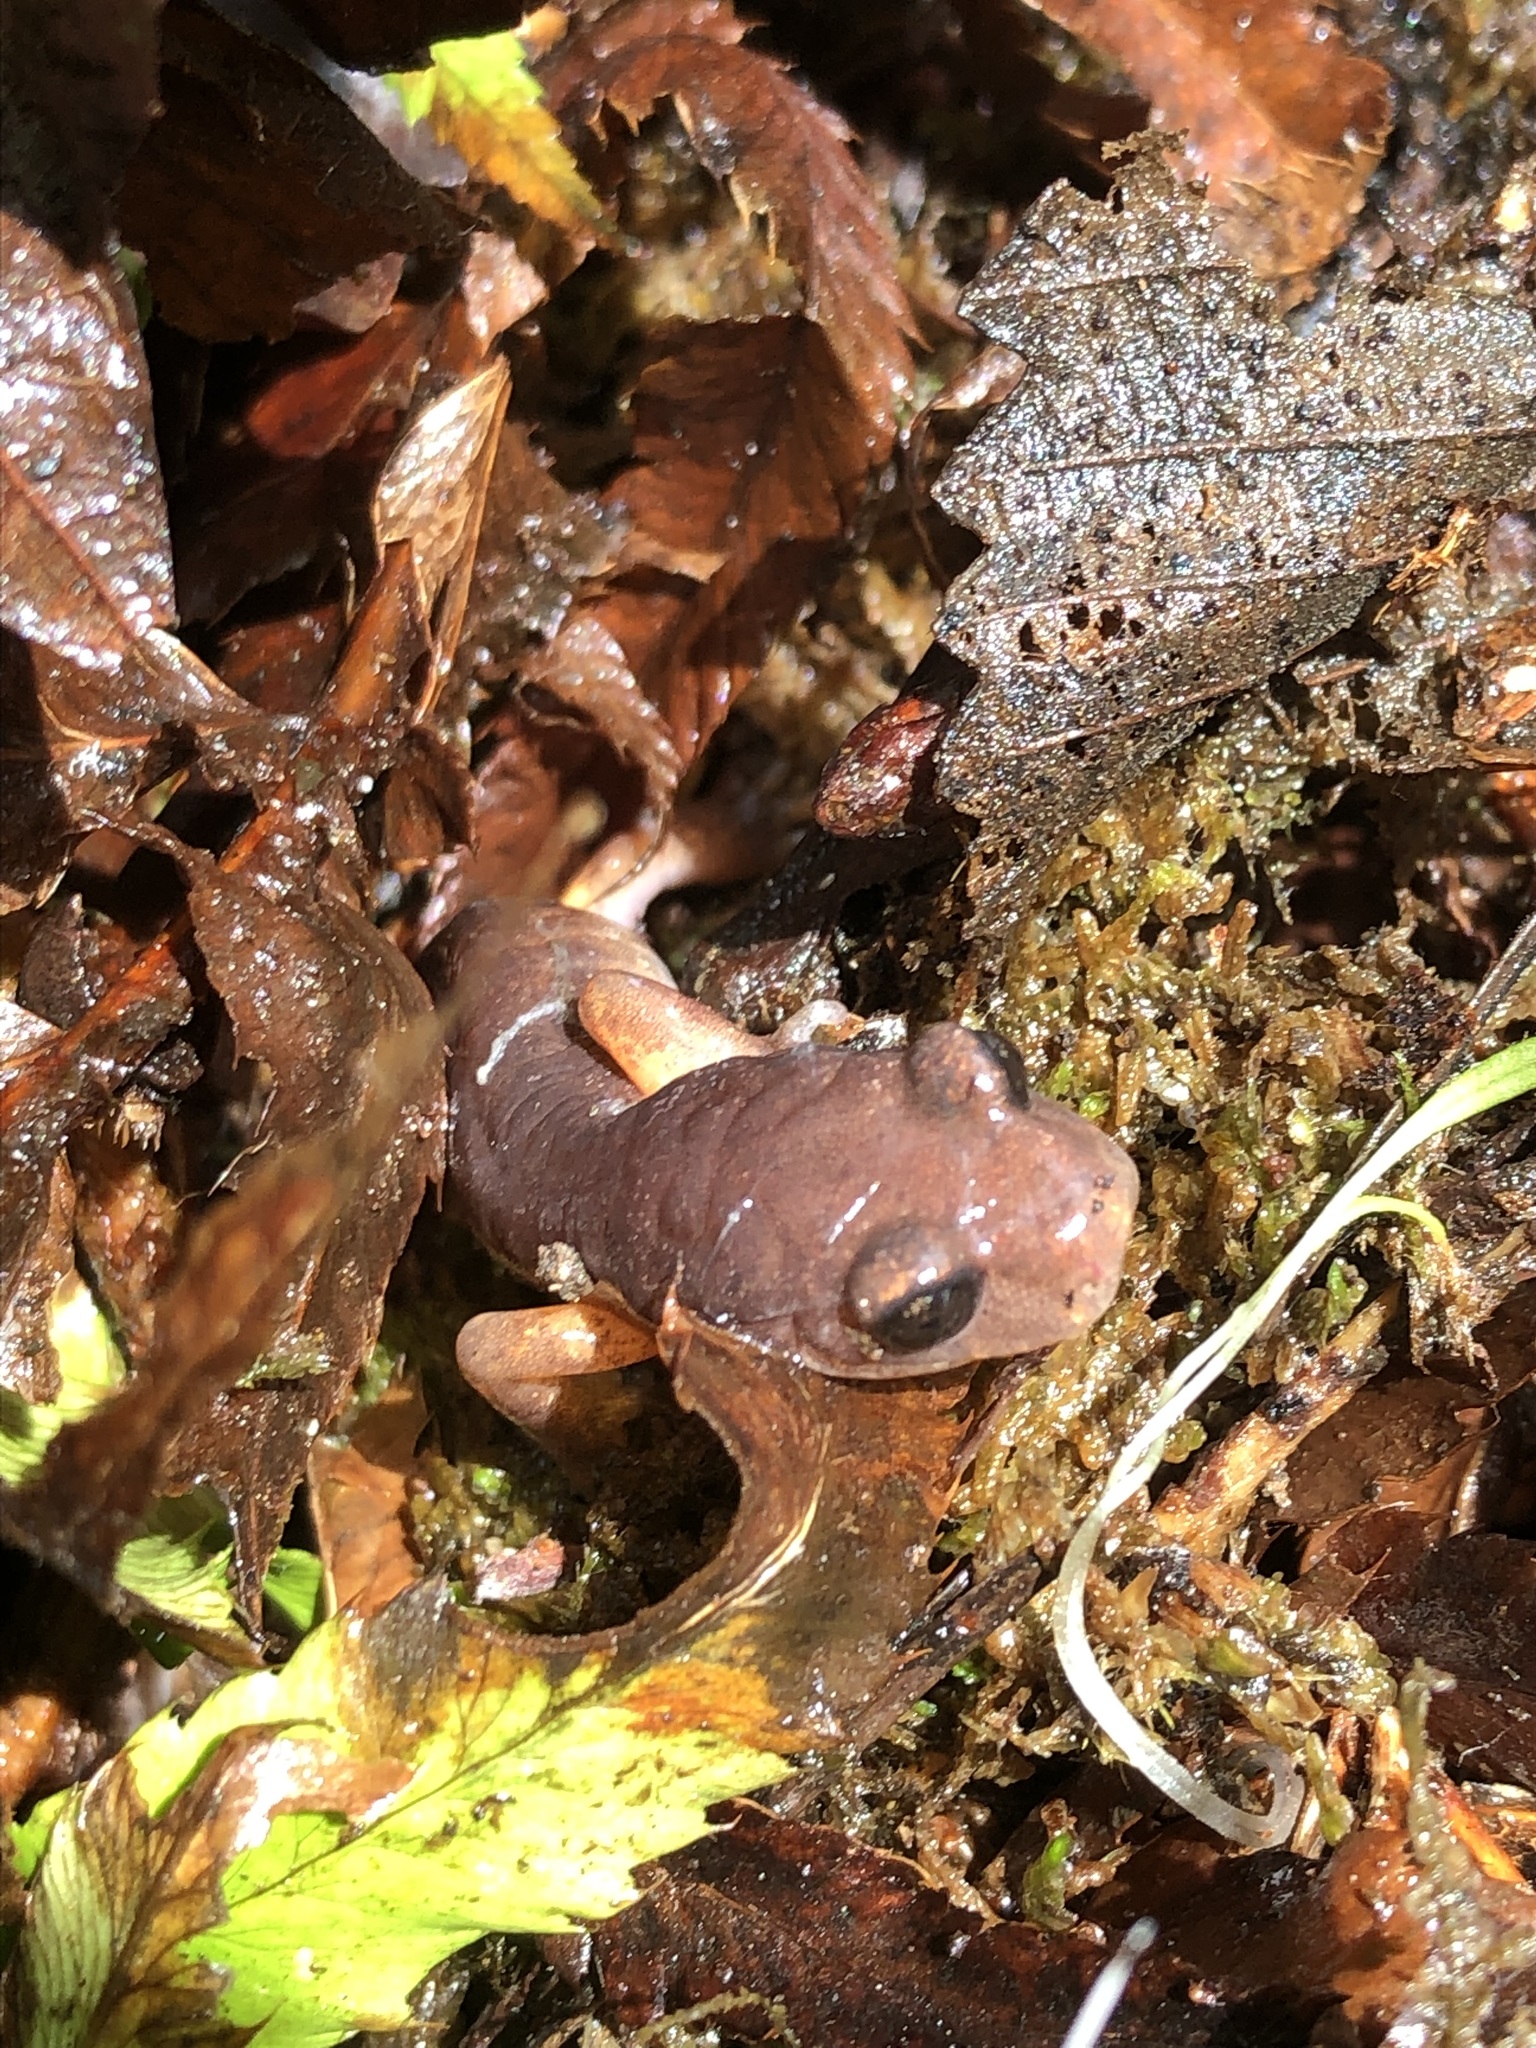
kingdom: Animalia
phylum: Chordata
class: Amphibia
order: Caudata
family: Plethodontidae
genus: Ensatina
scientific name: Ensatina eschscholtzii
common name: Ensatina
